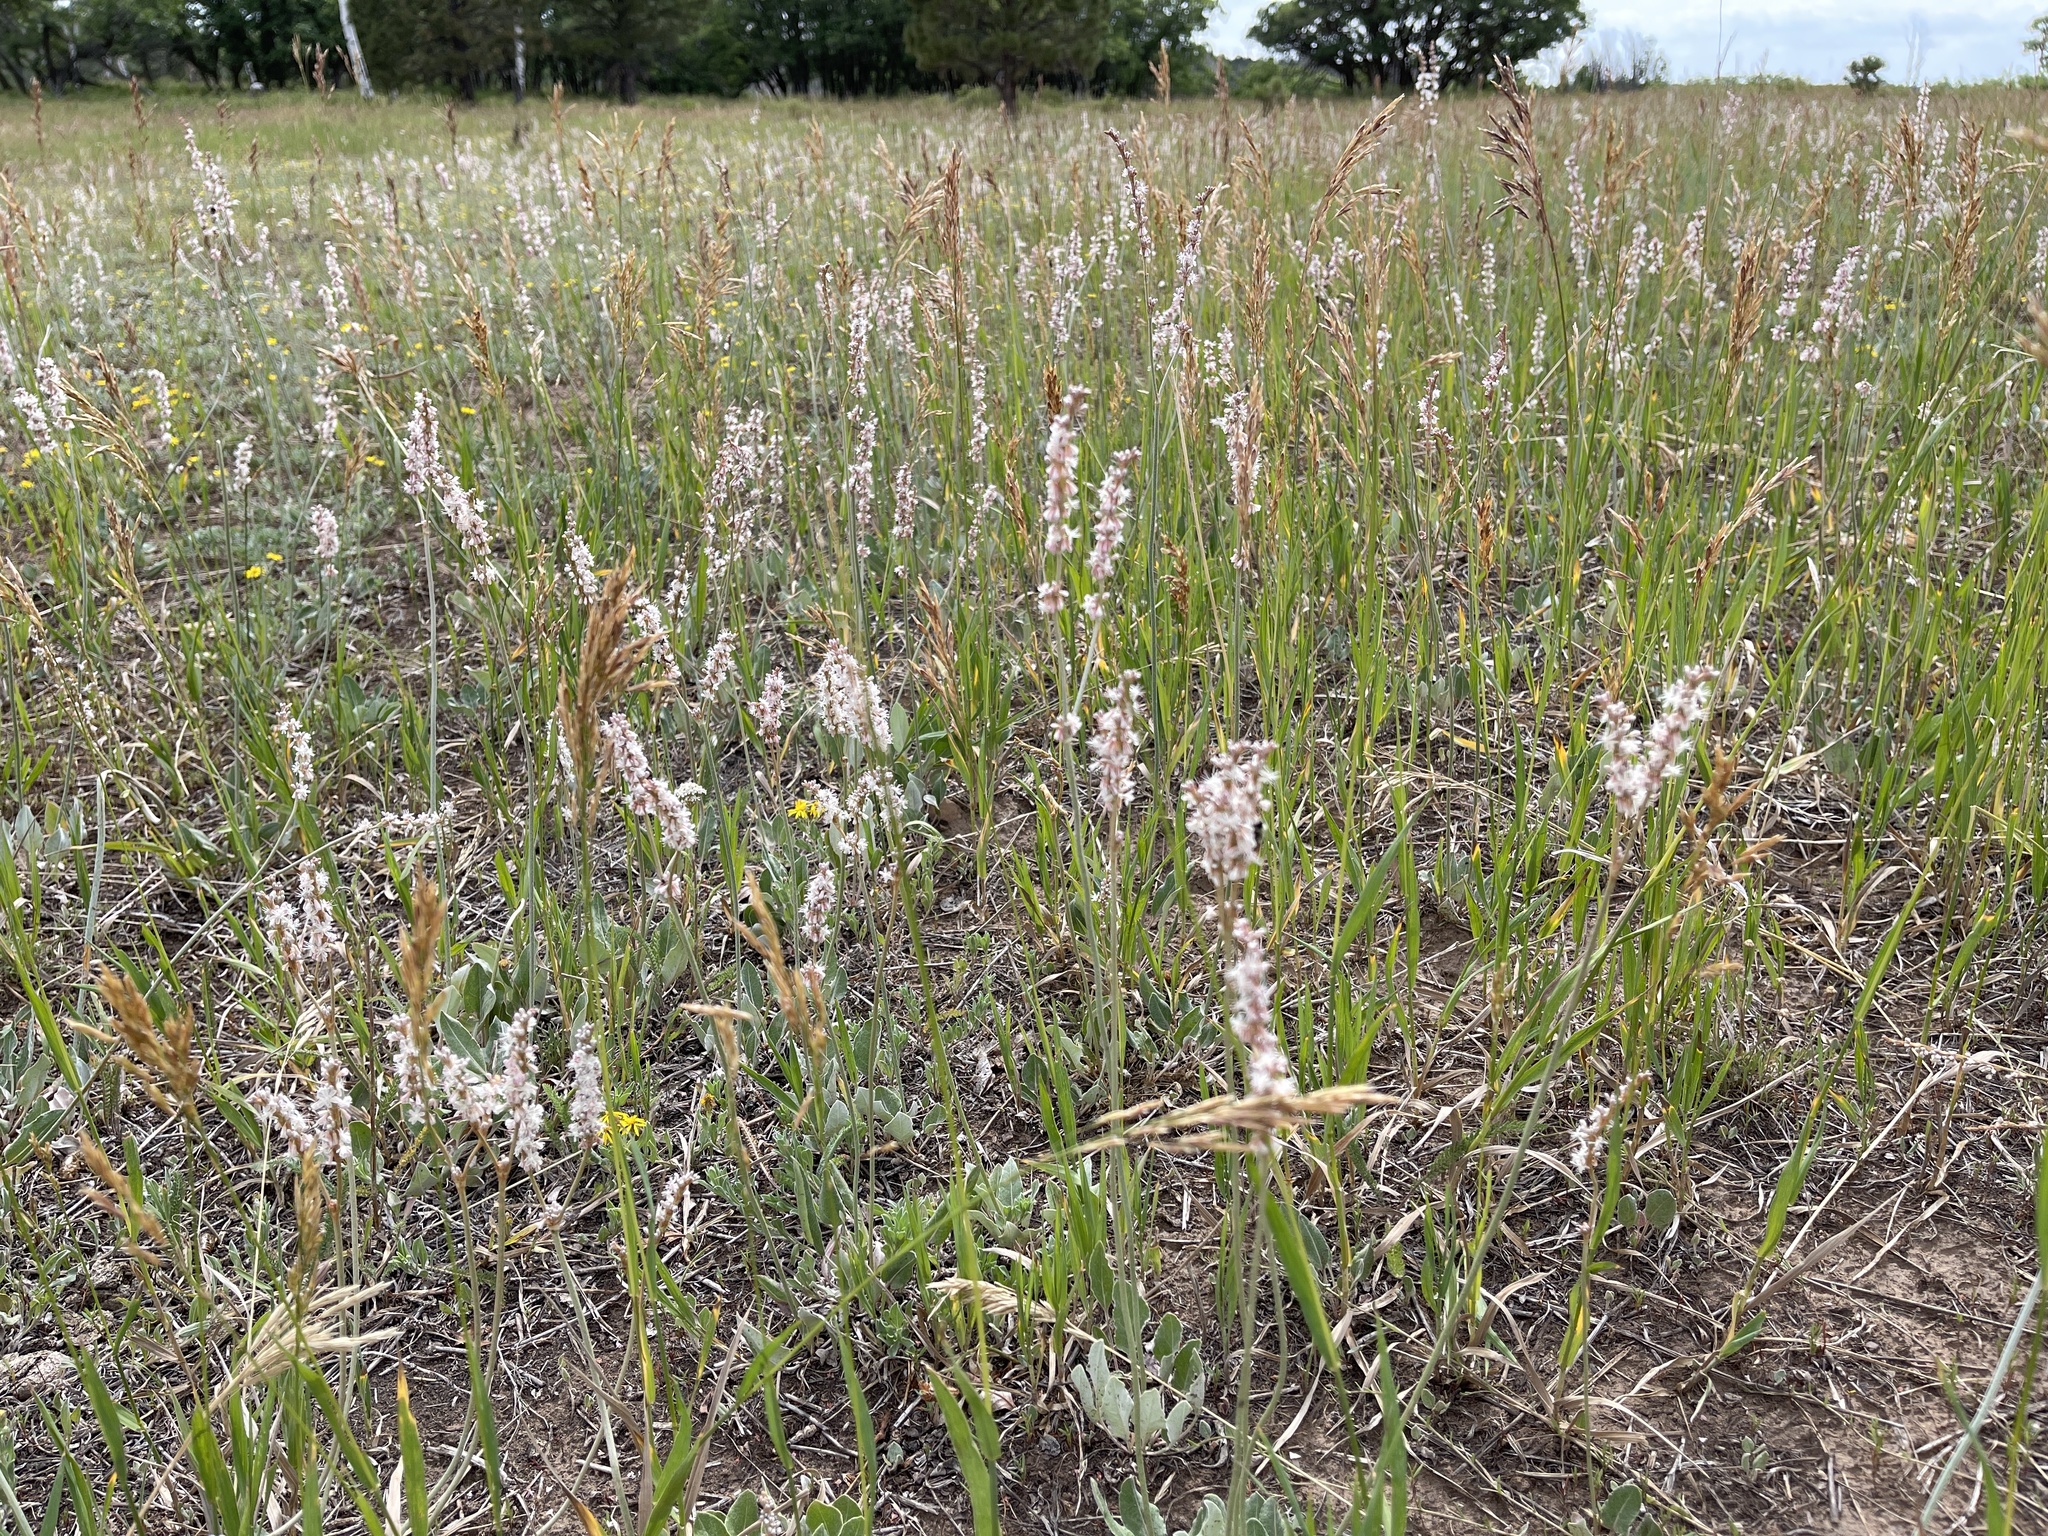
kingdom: Plantae
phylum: Tracheophyta
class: Magnoliopsida
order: Caryophyllales
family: Polygonaceae
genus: Eriogonum
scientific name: Eriogonum racemosum
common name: Redroot wild buckwheat
